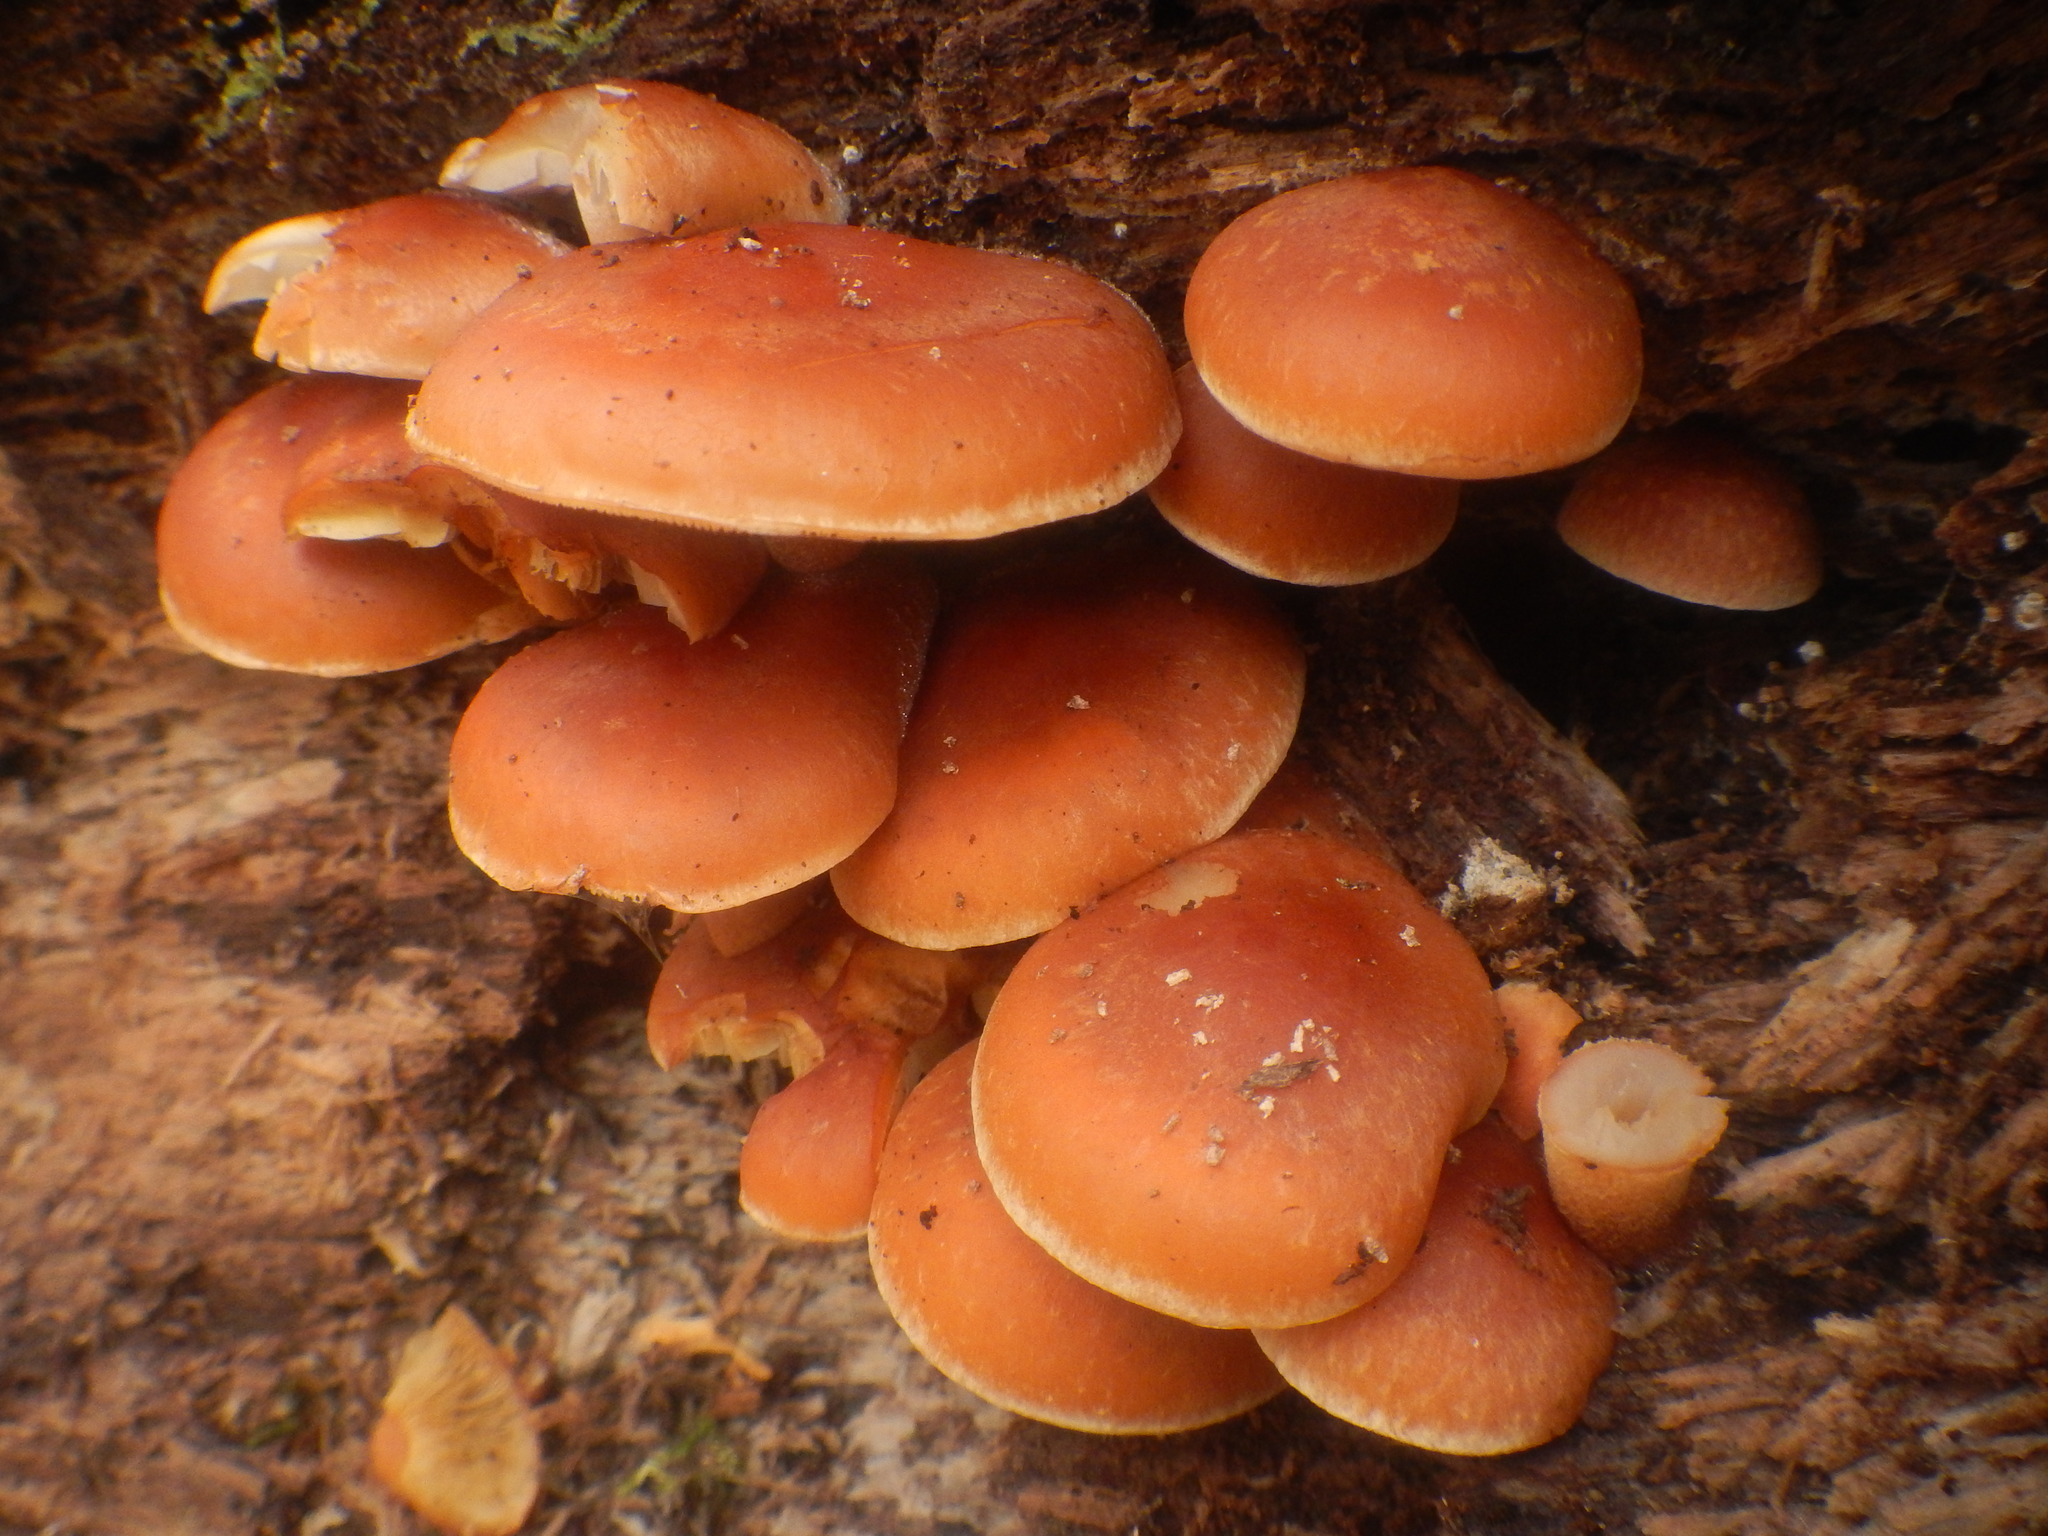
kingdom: Fungi
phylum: Basidiomycota
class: Agaricomycetes
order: Agaricales
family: Strophariaceae
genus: Hypholoma
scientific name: Hypholoma lateritium
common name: Brick caps
